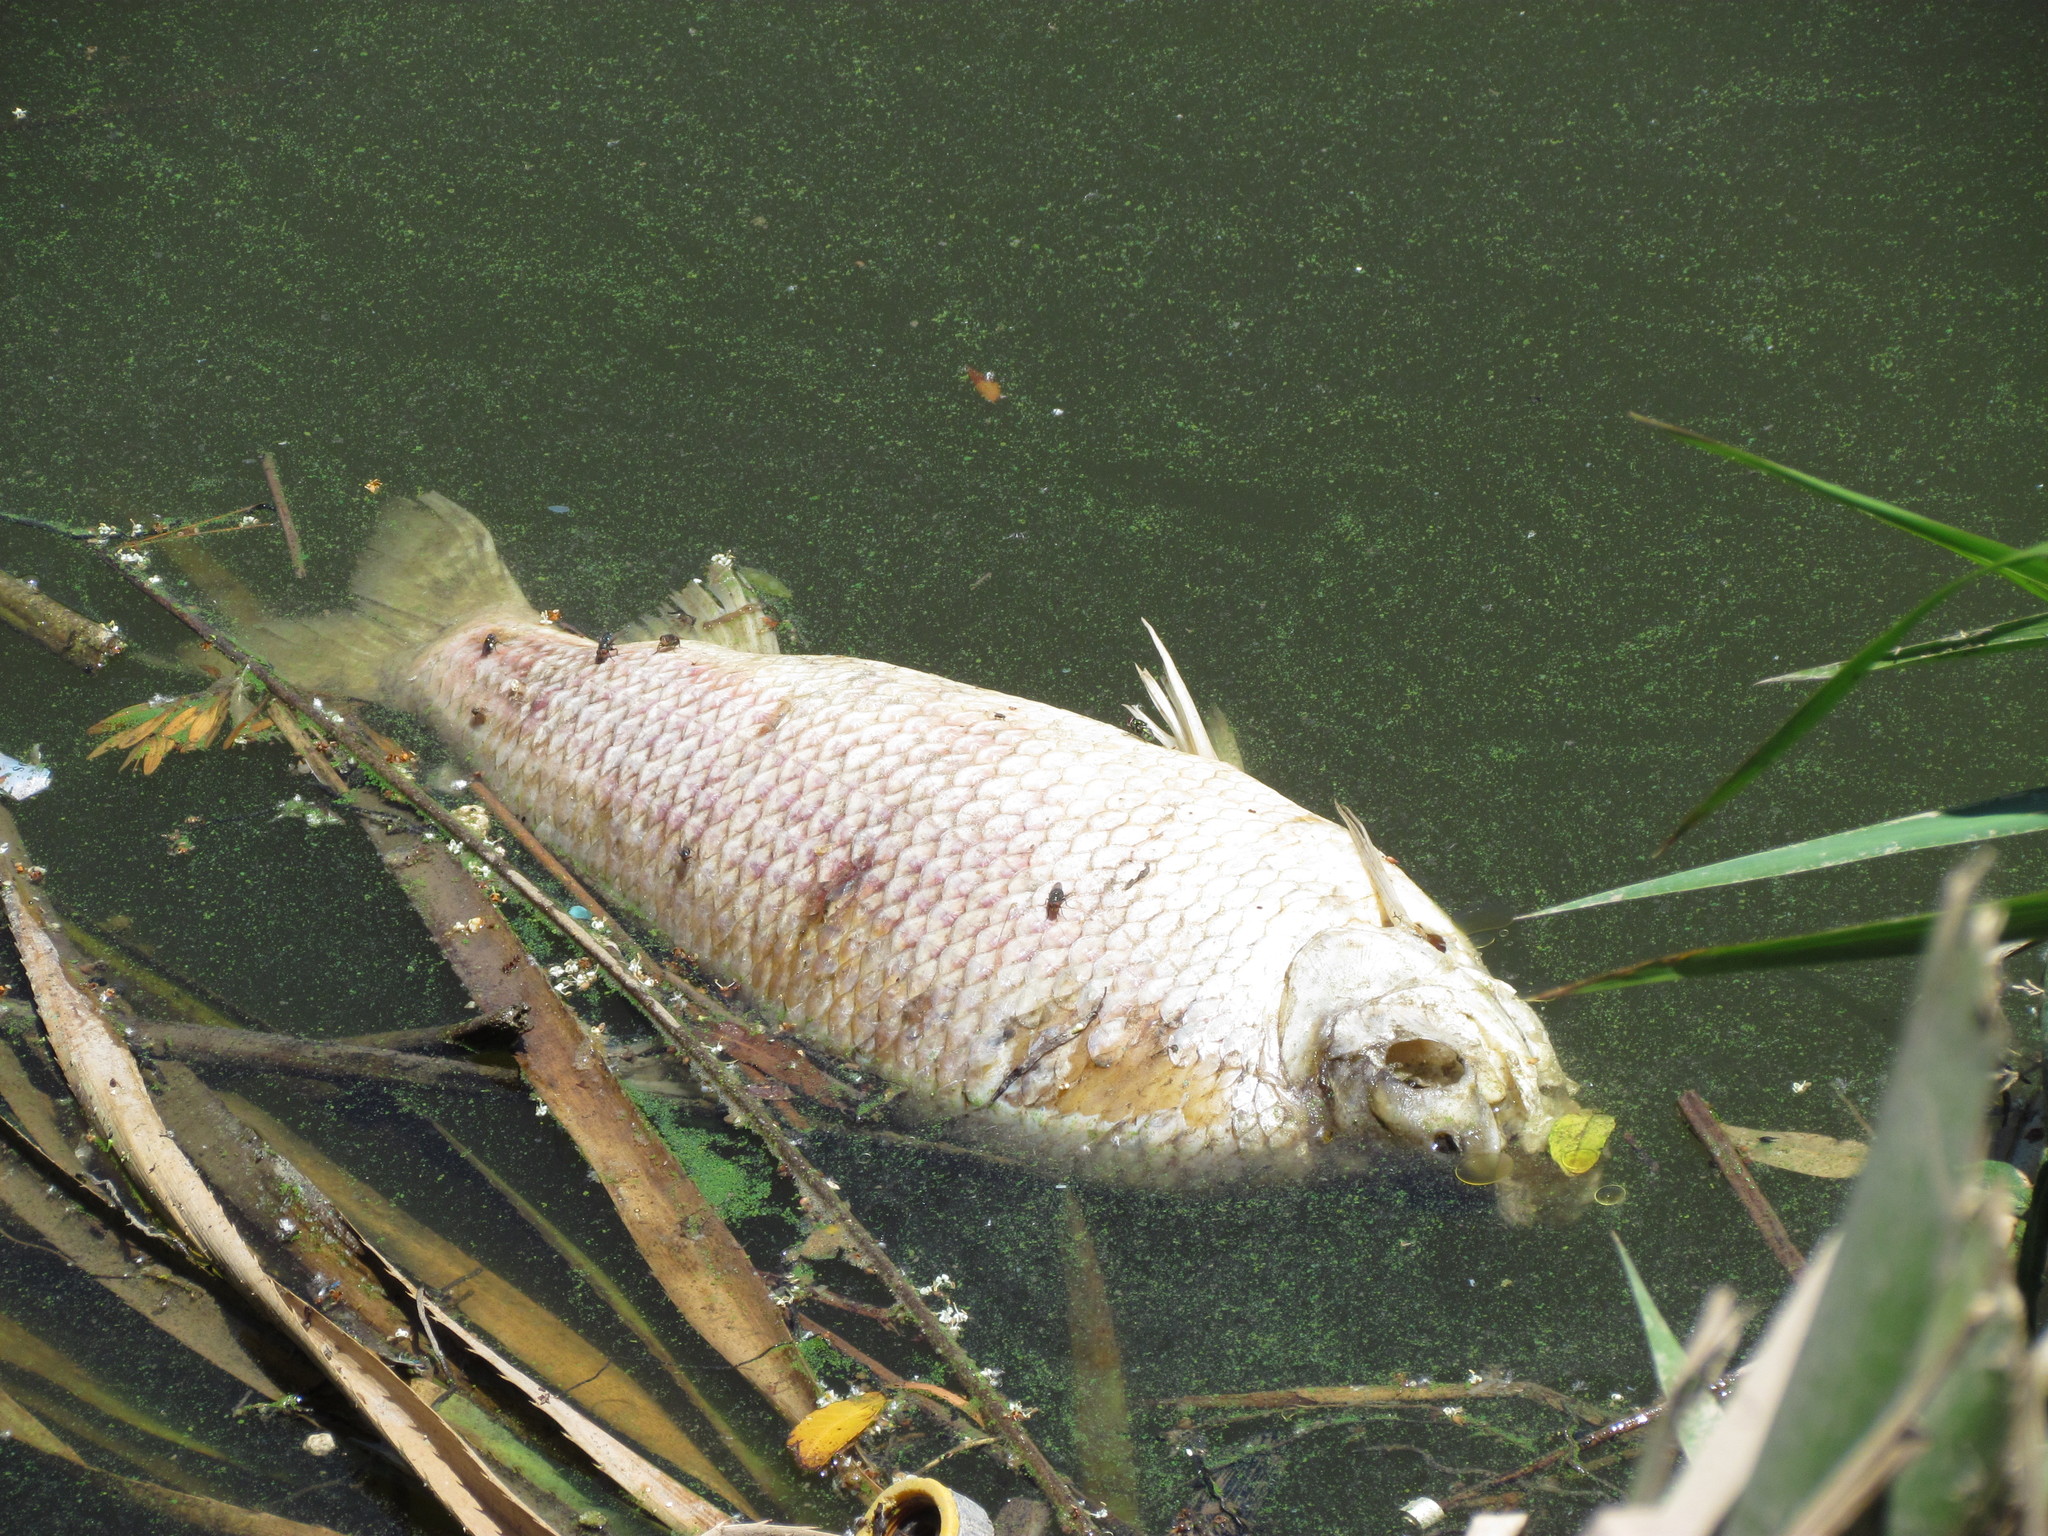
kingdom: Animalia
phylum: Chordata
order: Characiformes
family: Prochilodontidae
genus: Prochilodus
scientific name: Prochilodus lineatus
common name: Curimbata
